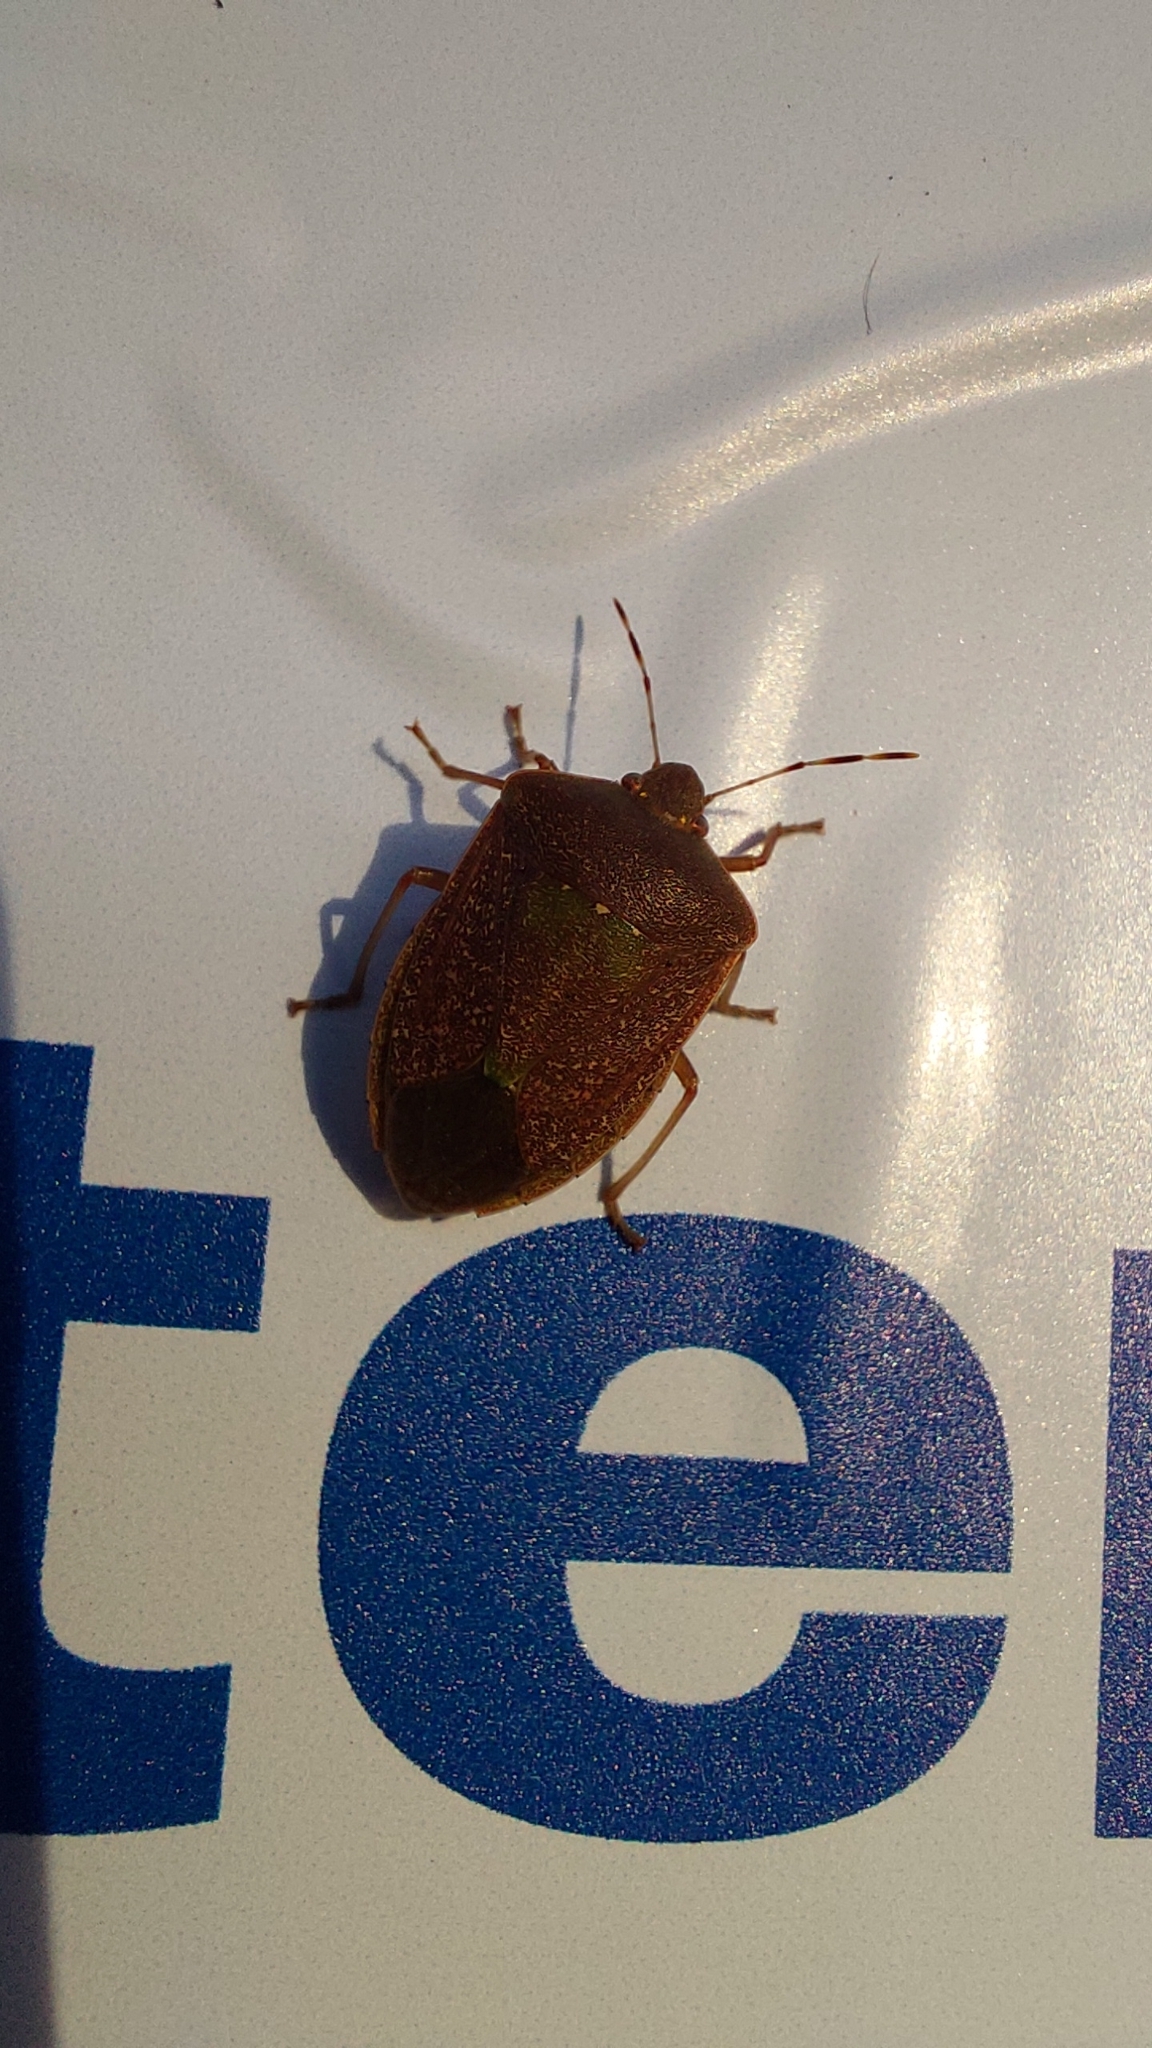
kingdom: Animalia
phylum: Arthropoda
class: Insecta
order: Hemiptera
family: Pentatomidae
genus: Nezara
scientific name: Nezara viridula
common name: Southern green stink bug
